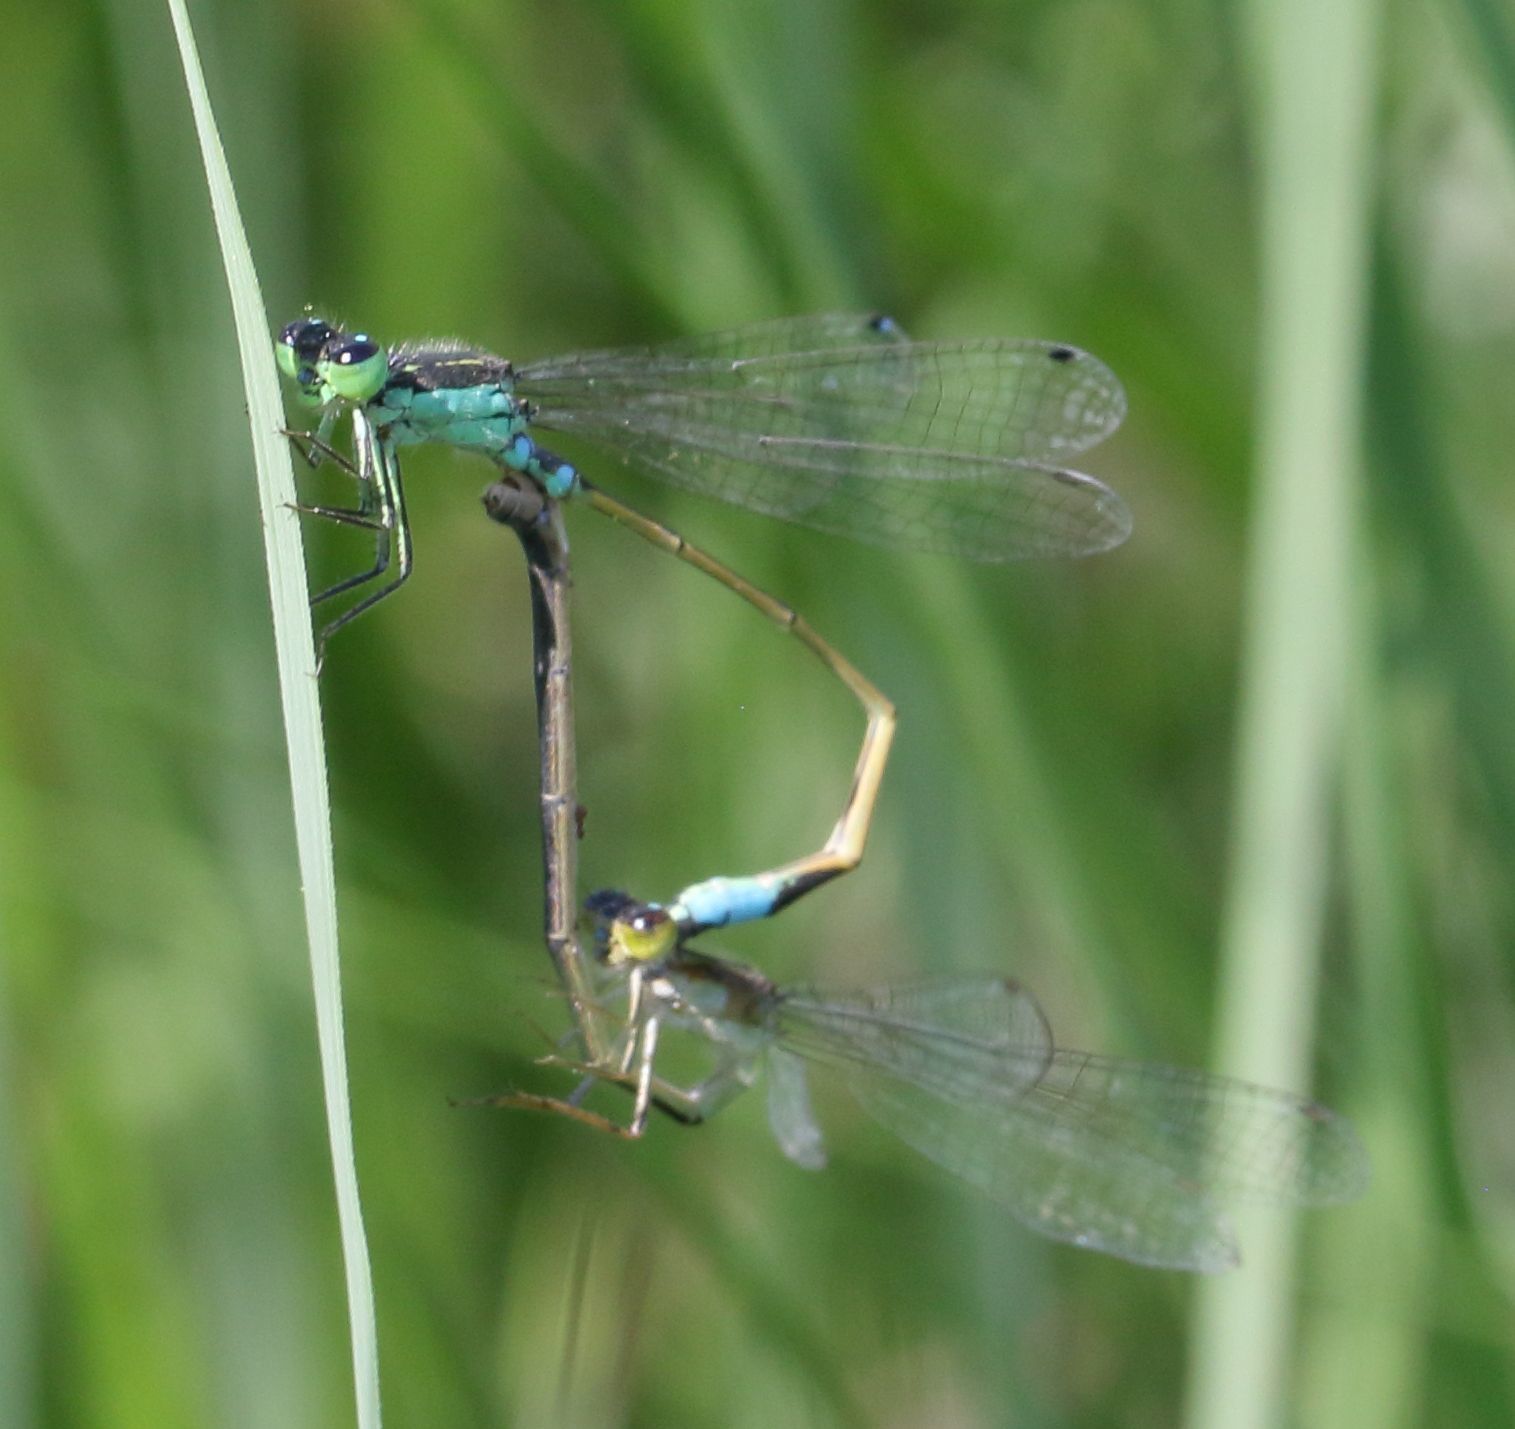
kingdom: Animalia
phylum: Arthropoda
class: Insecta
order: Odonata
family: Coenagrionidae
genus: Ischnura
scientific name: Ischnura senegalensis
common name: Tropical bluetail
